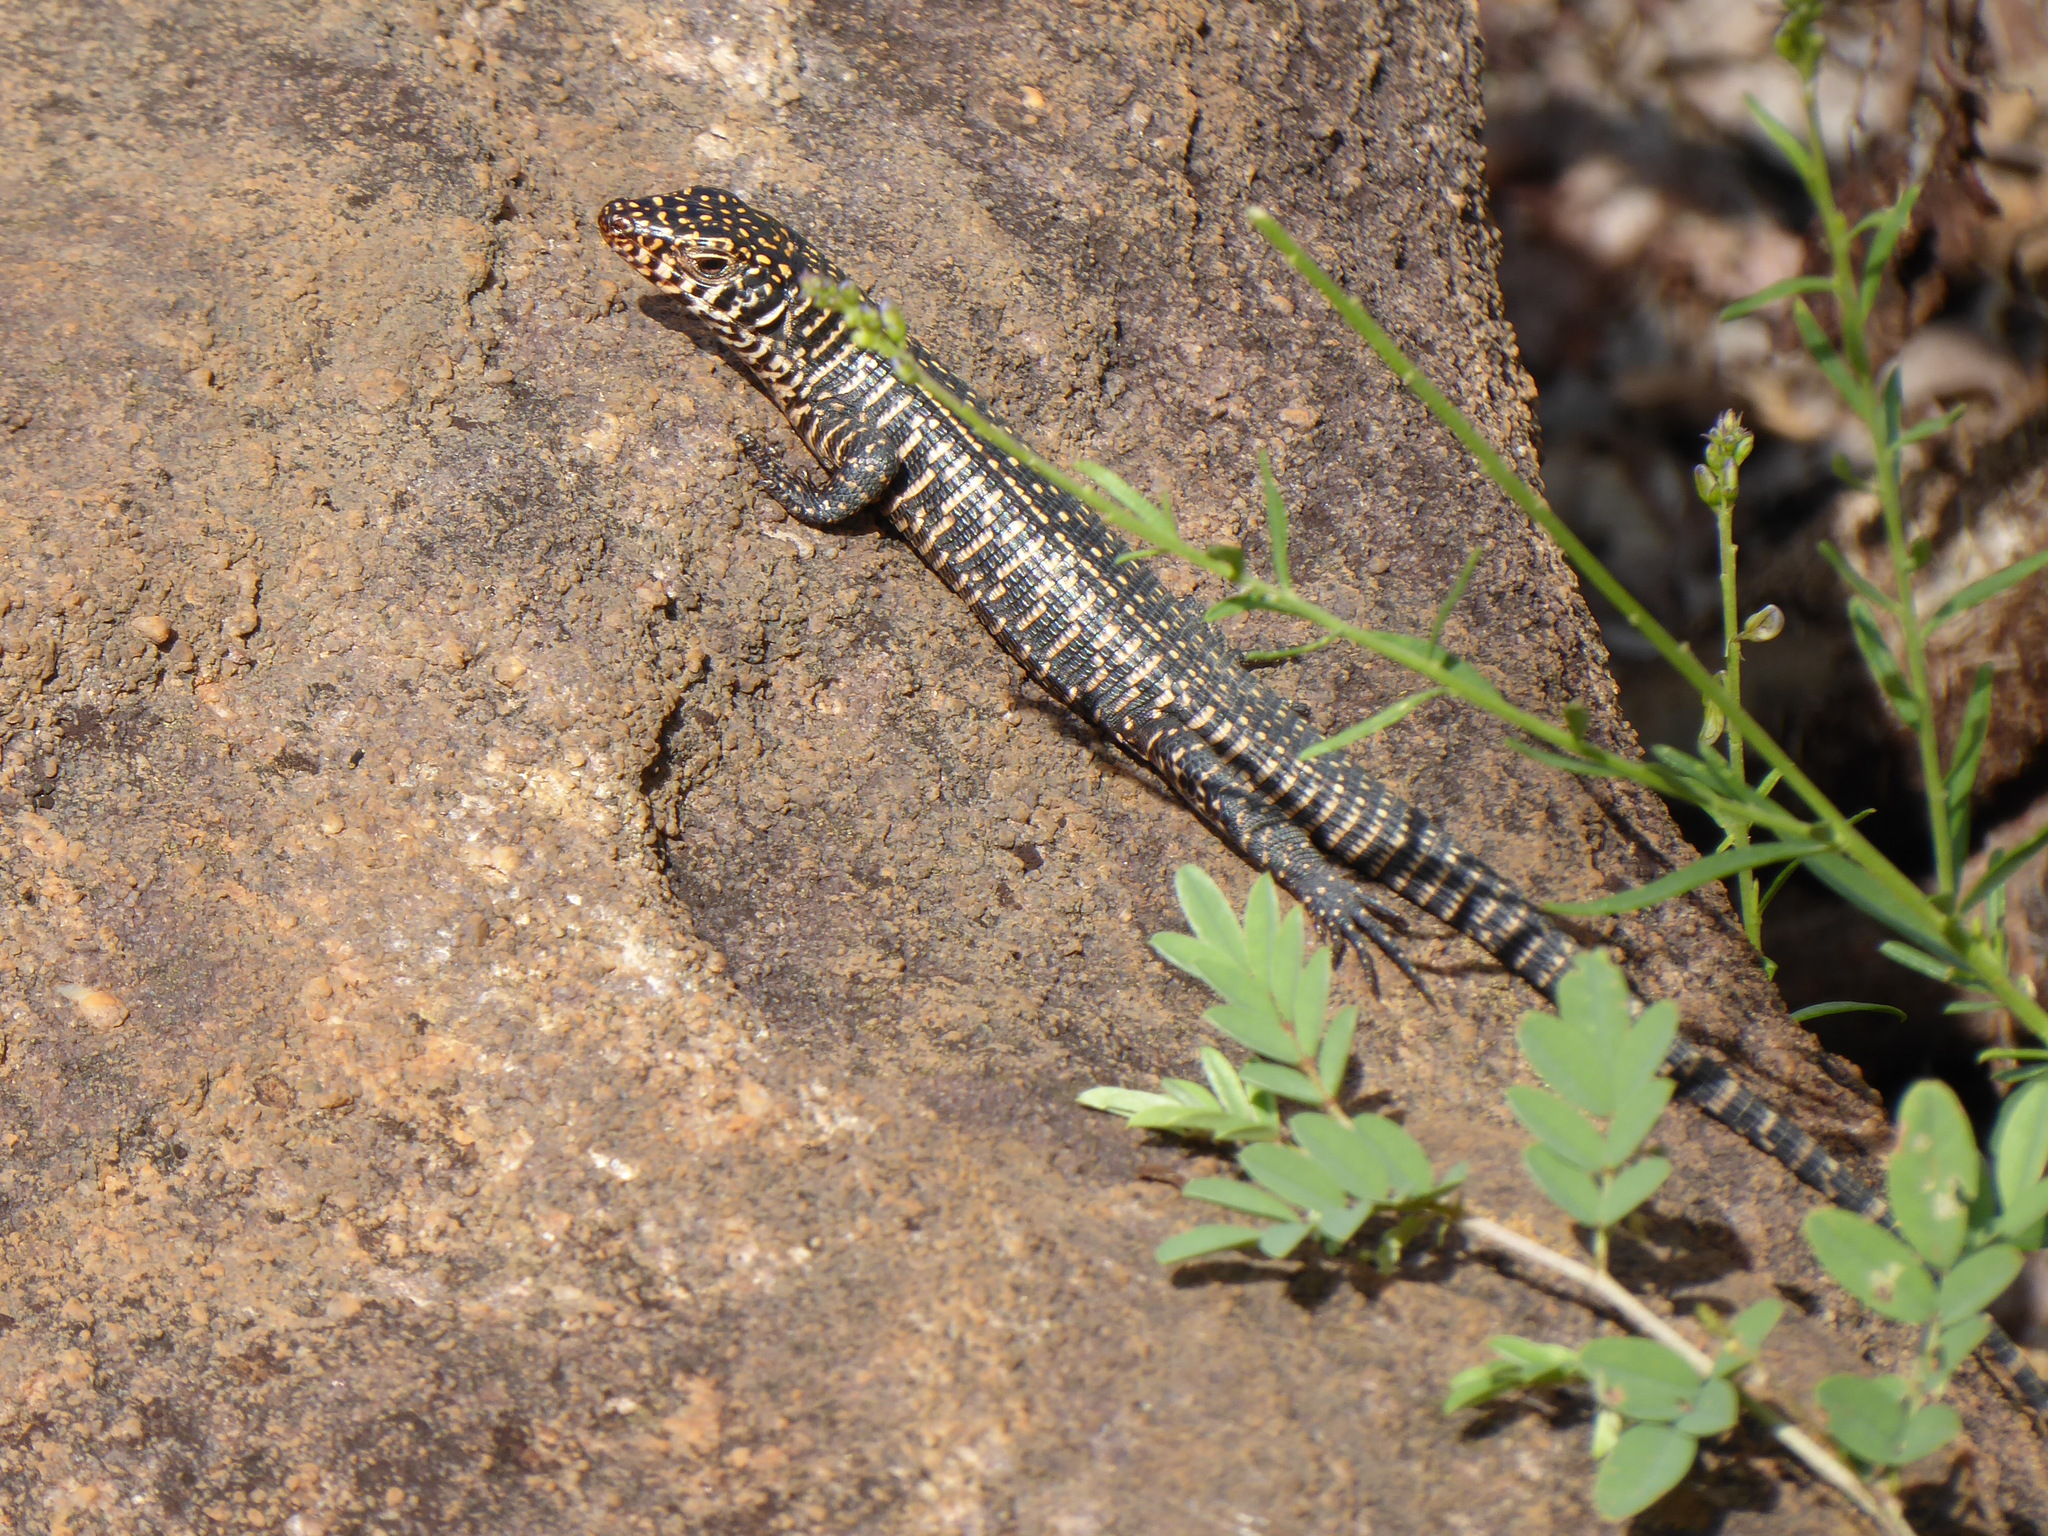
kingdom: Animalia
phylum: Chordata
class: Squamata
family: Gerrhosauridae
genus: Matobosaurus
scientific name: Matobosaurus validus
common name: Common giant plated lizard
